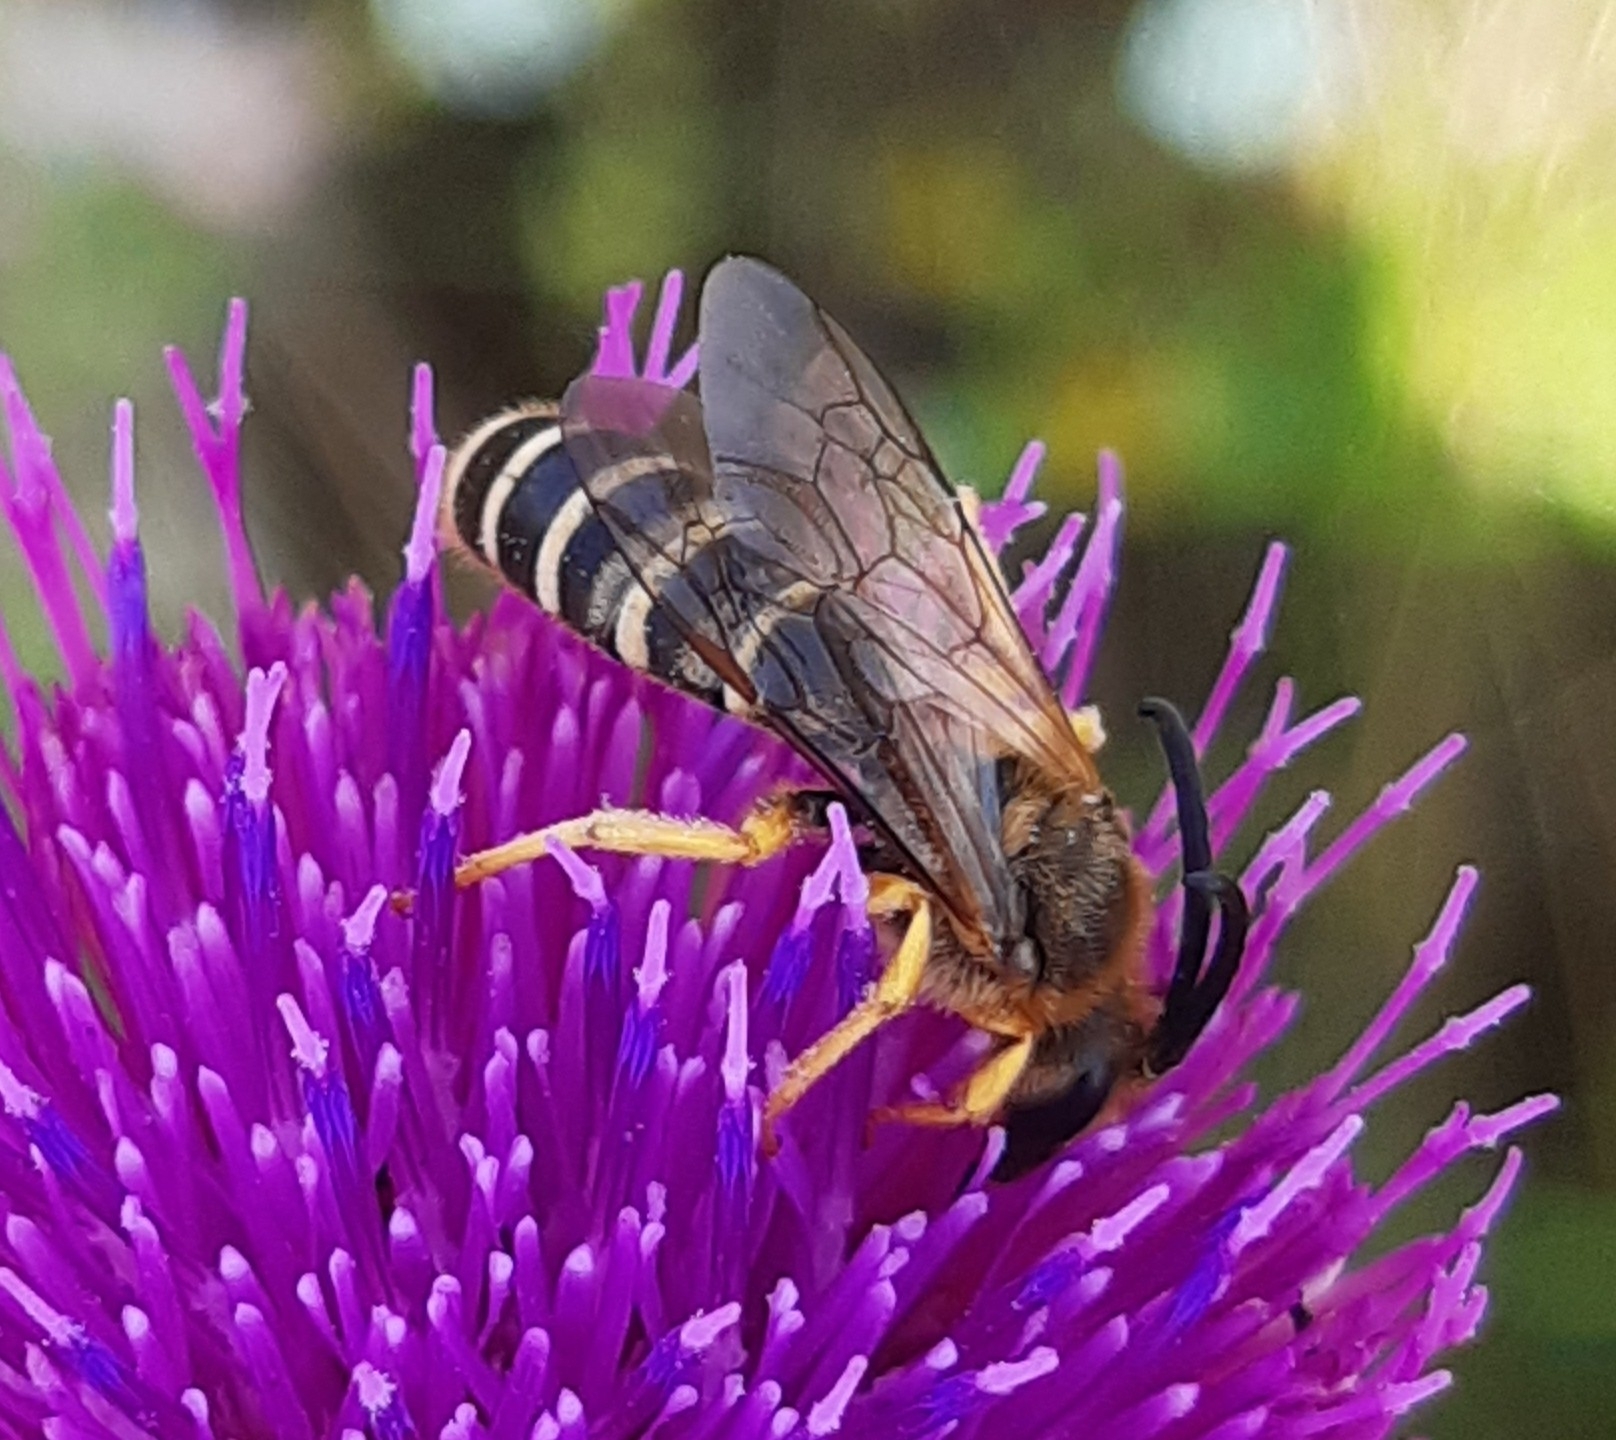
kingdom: Animalia
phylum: Arthropoda
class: Insecta
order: Hymenoptera
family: Halictidae
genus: Halictus
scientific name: Halictus scabiosae
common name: Great banded furrow bee
